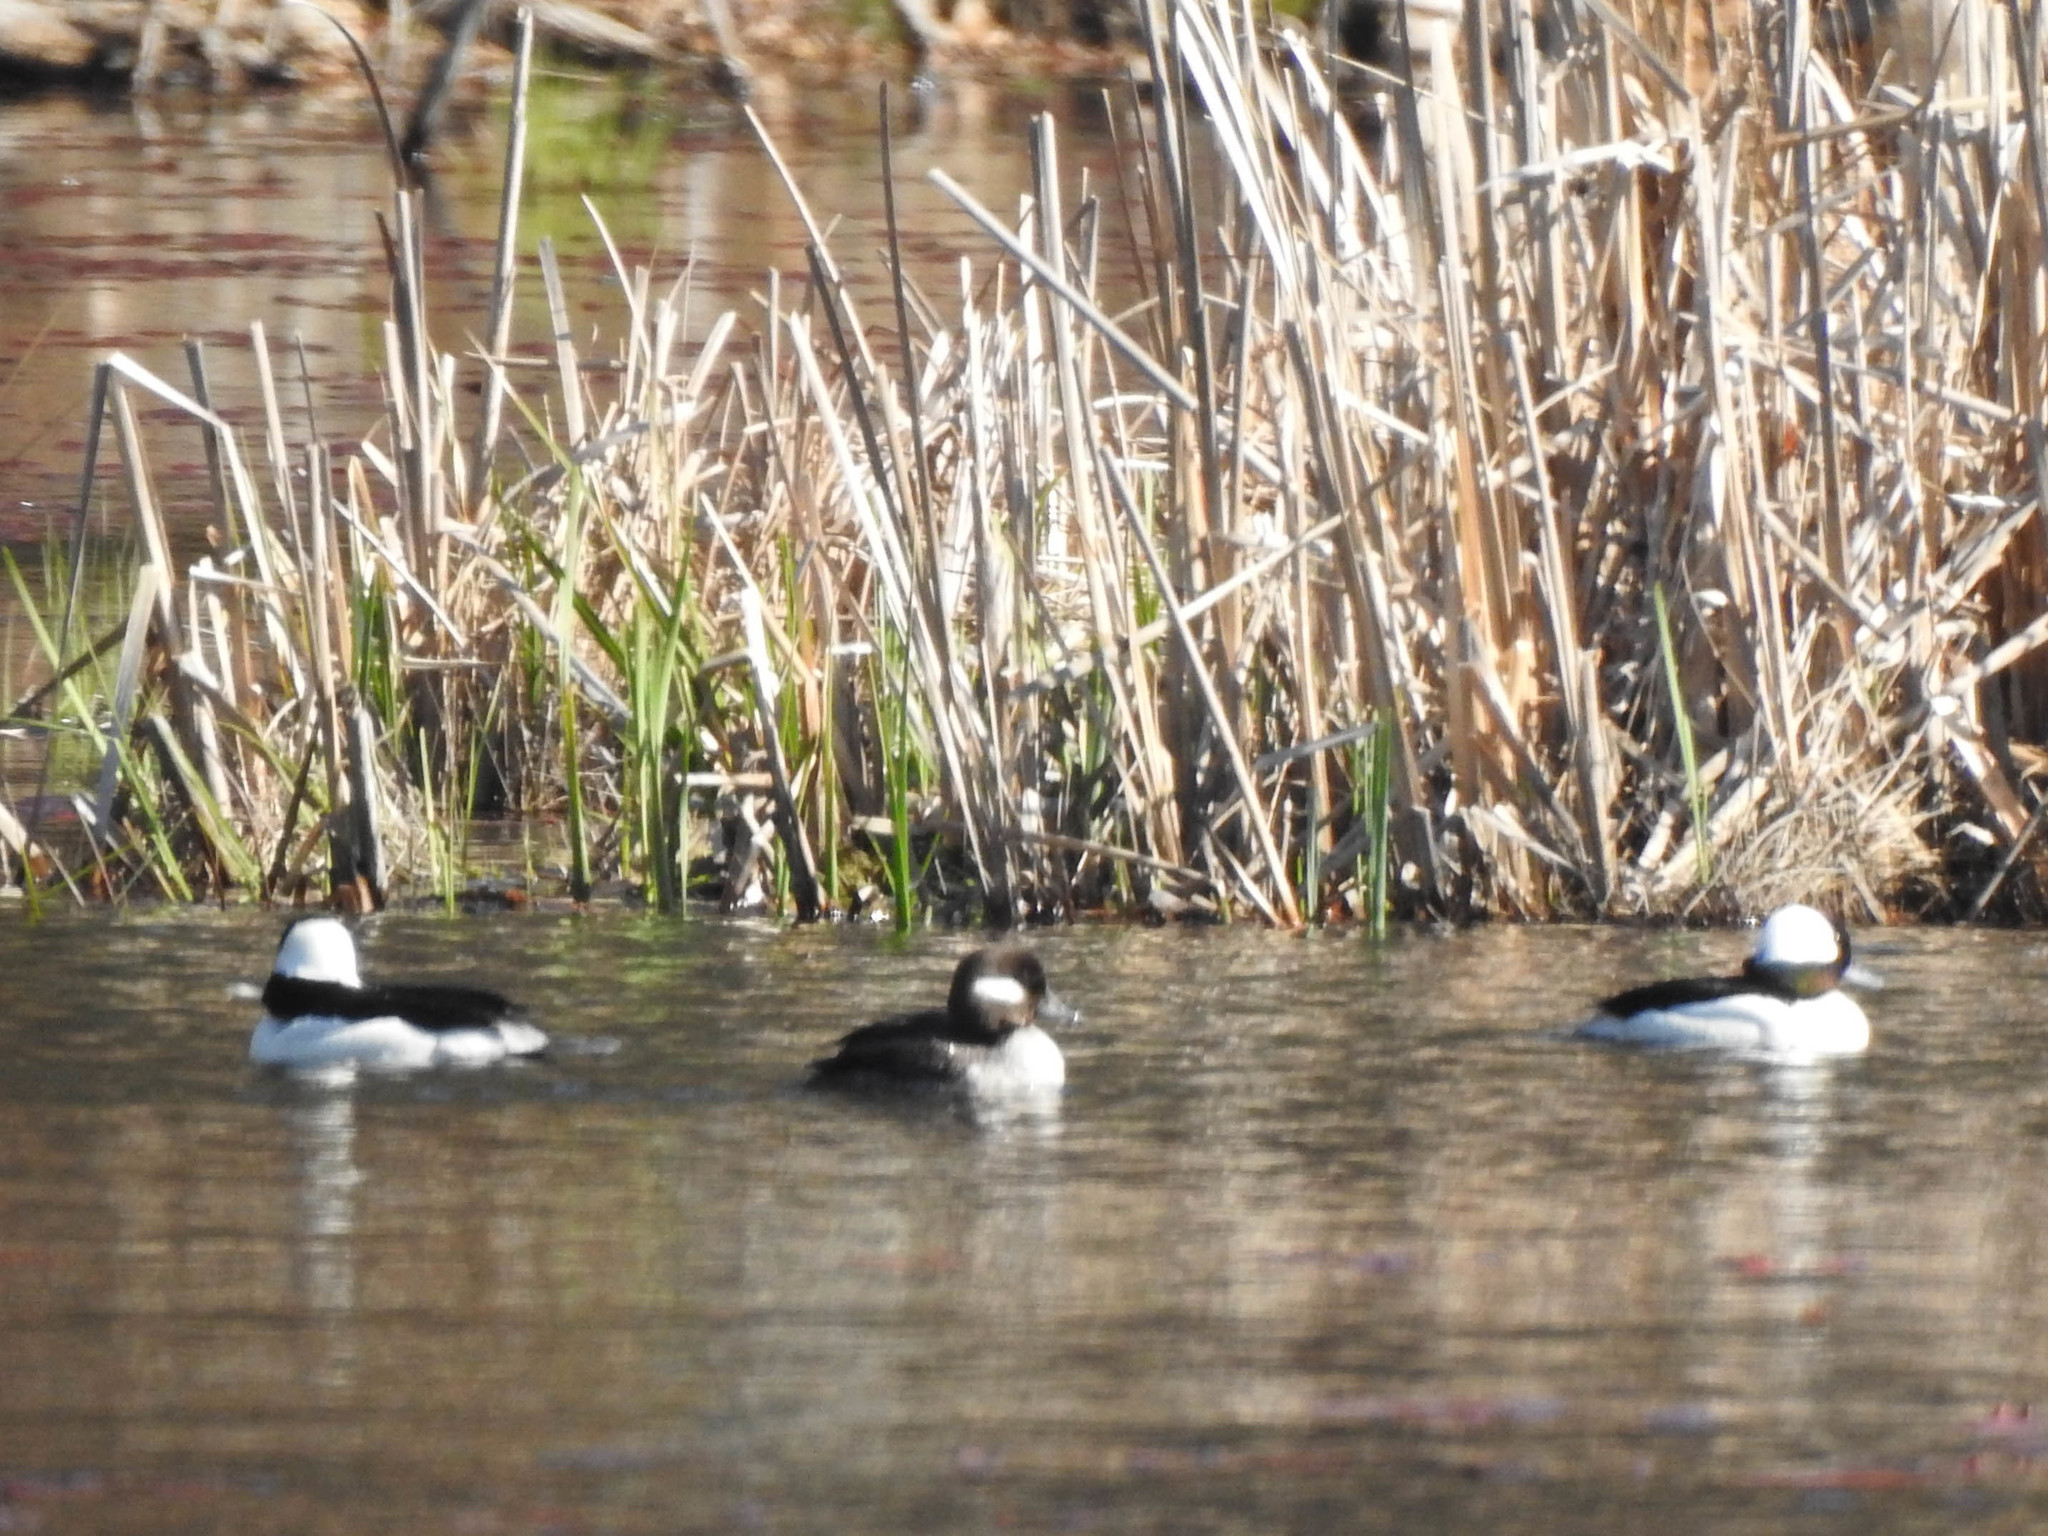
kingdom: Animalia
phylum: Chordata
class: Aves
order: Anseriformes
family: Anatidae
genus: Bucephala
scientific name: Bucephala albeola
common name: Bufflehead
